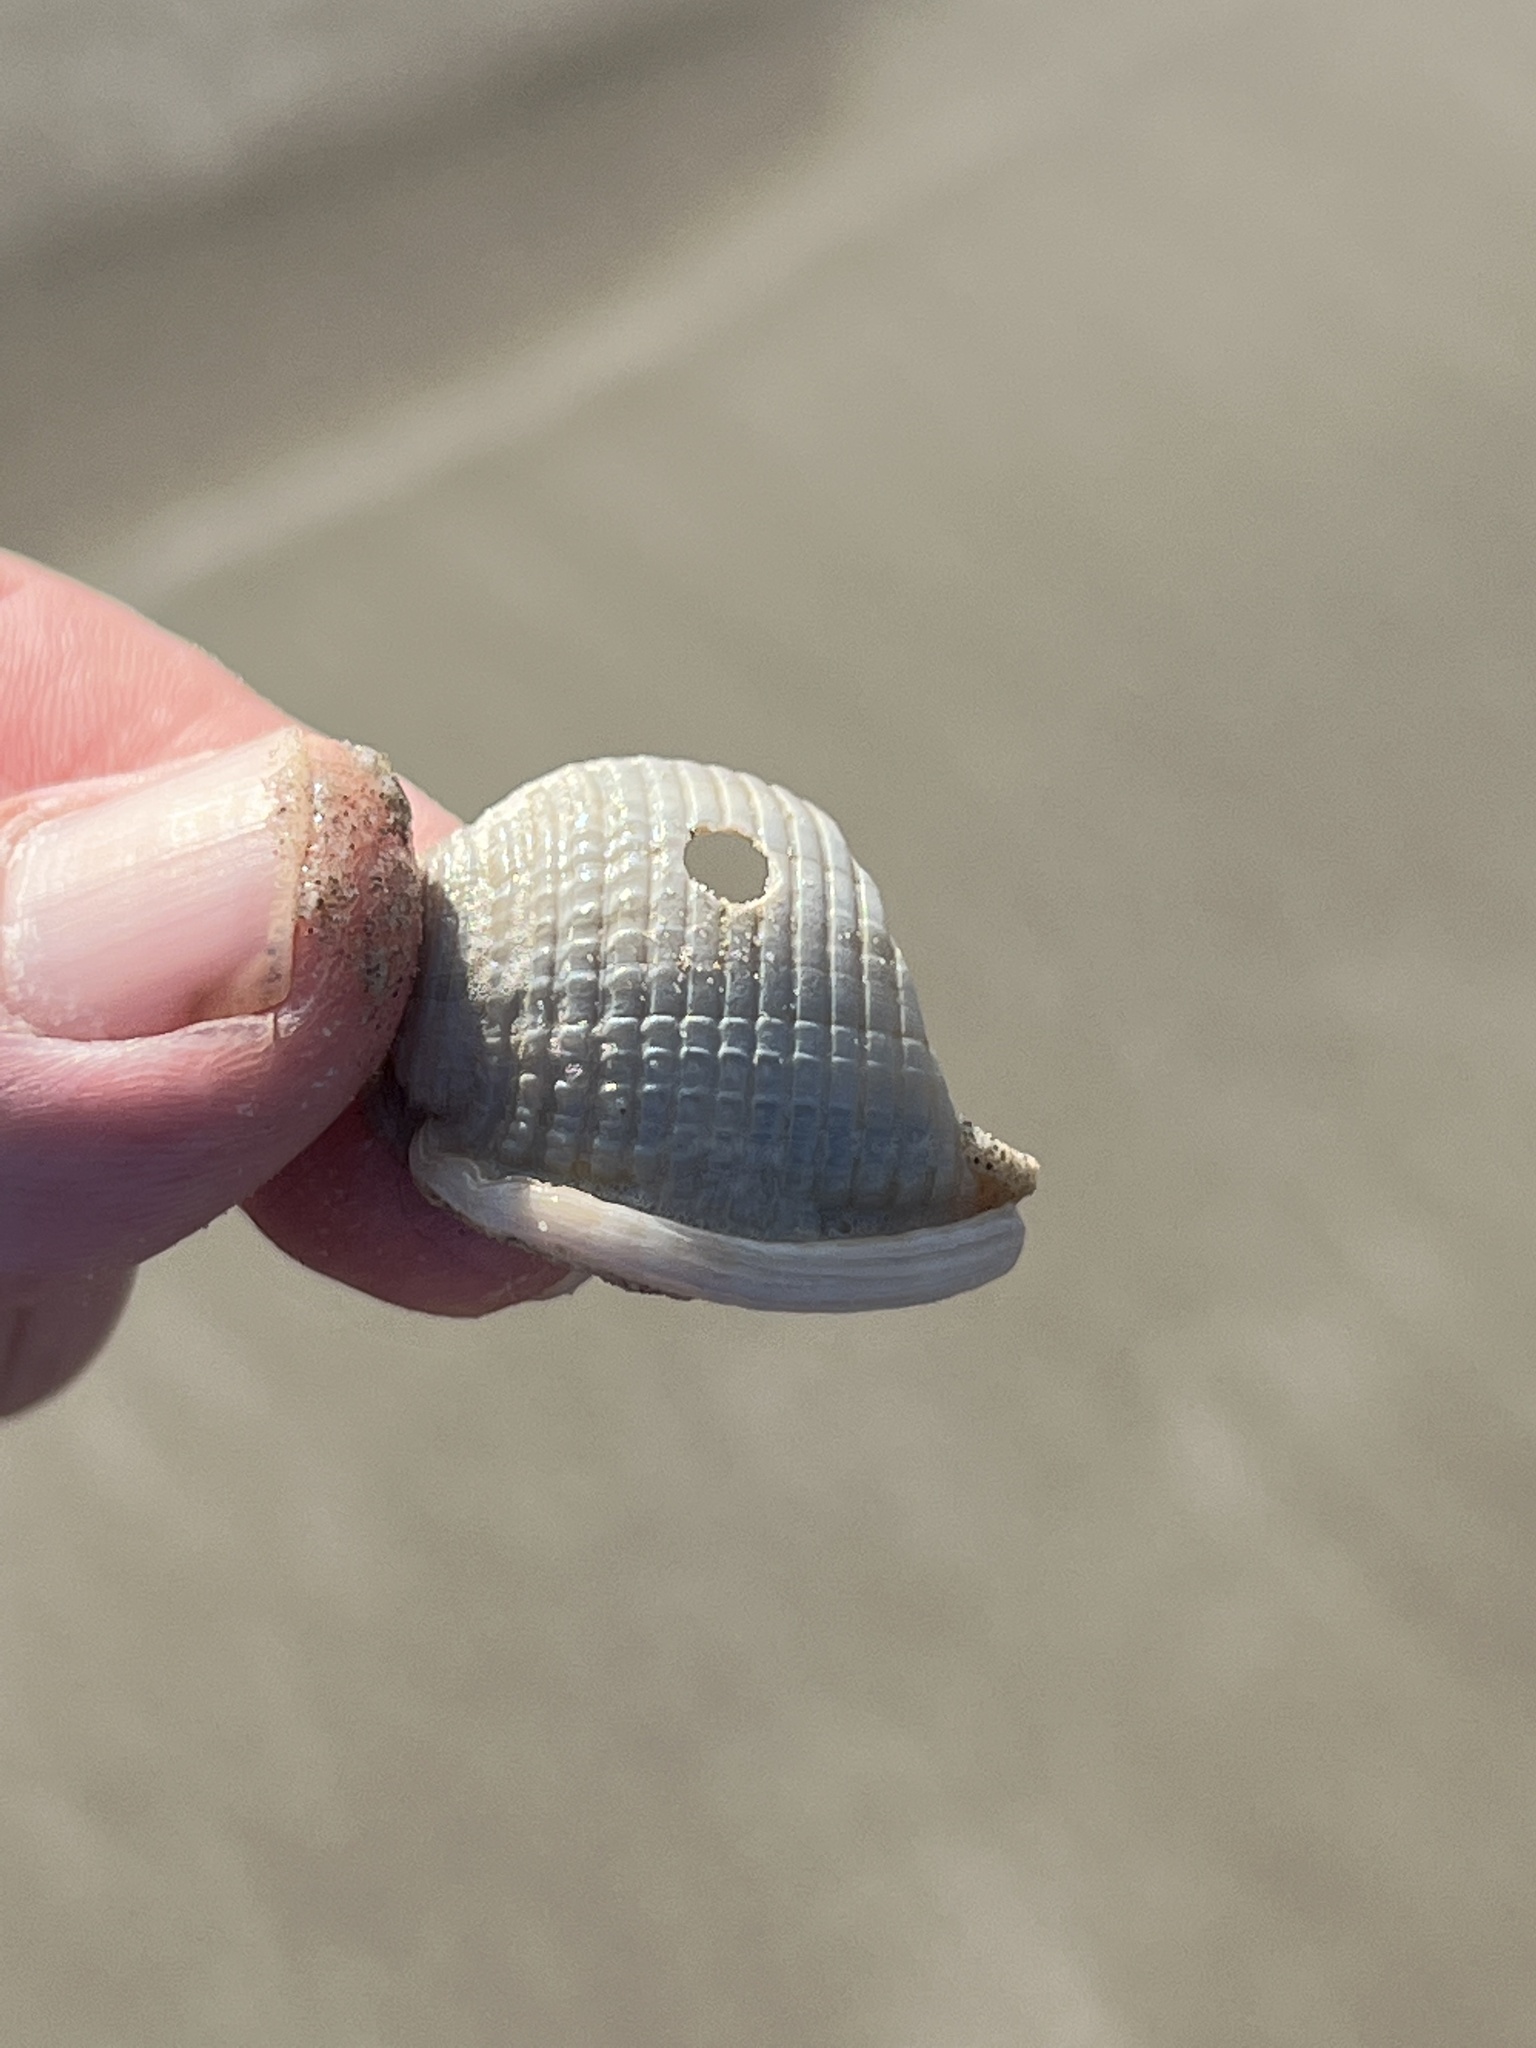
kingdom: Animalia
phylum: Mollusca
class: Gastropoda
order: Littorinimorpha
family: Cassidae
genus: Semicassis
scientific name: Semicassis granulata
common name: Scotch bonnet
